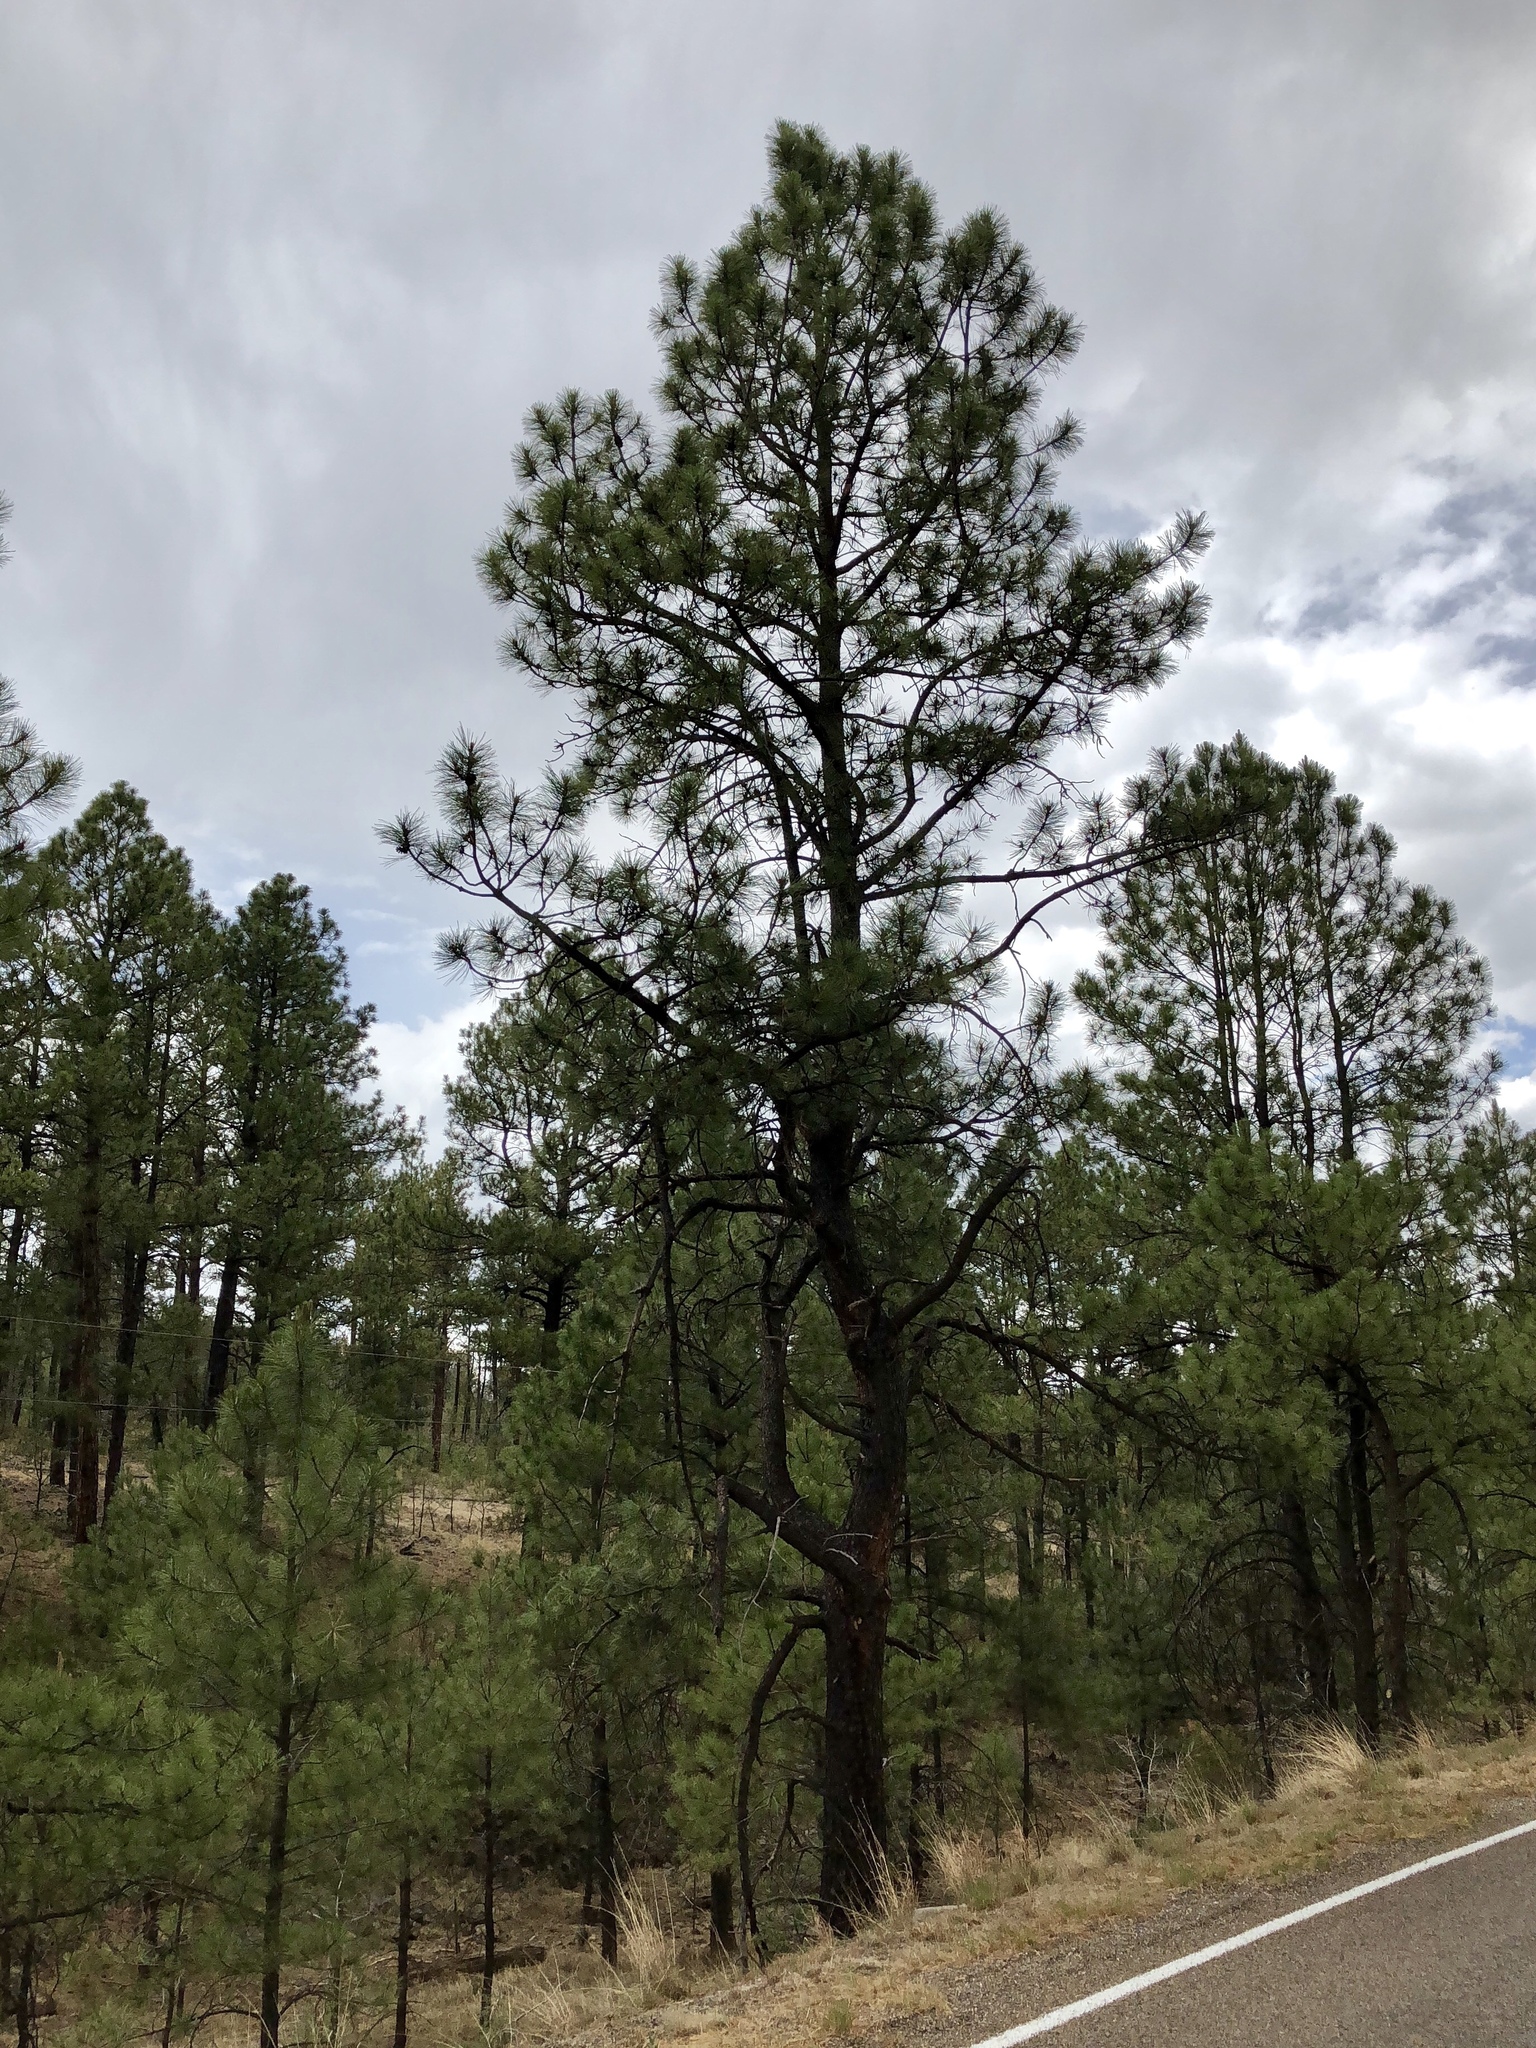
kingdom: Plantae
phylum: Tracheophyta
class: Pinopsida
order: Pinales
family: Pinaceae
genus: Pinus
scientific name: Pinus ponderosa
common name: Western yellow-pine
